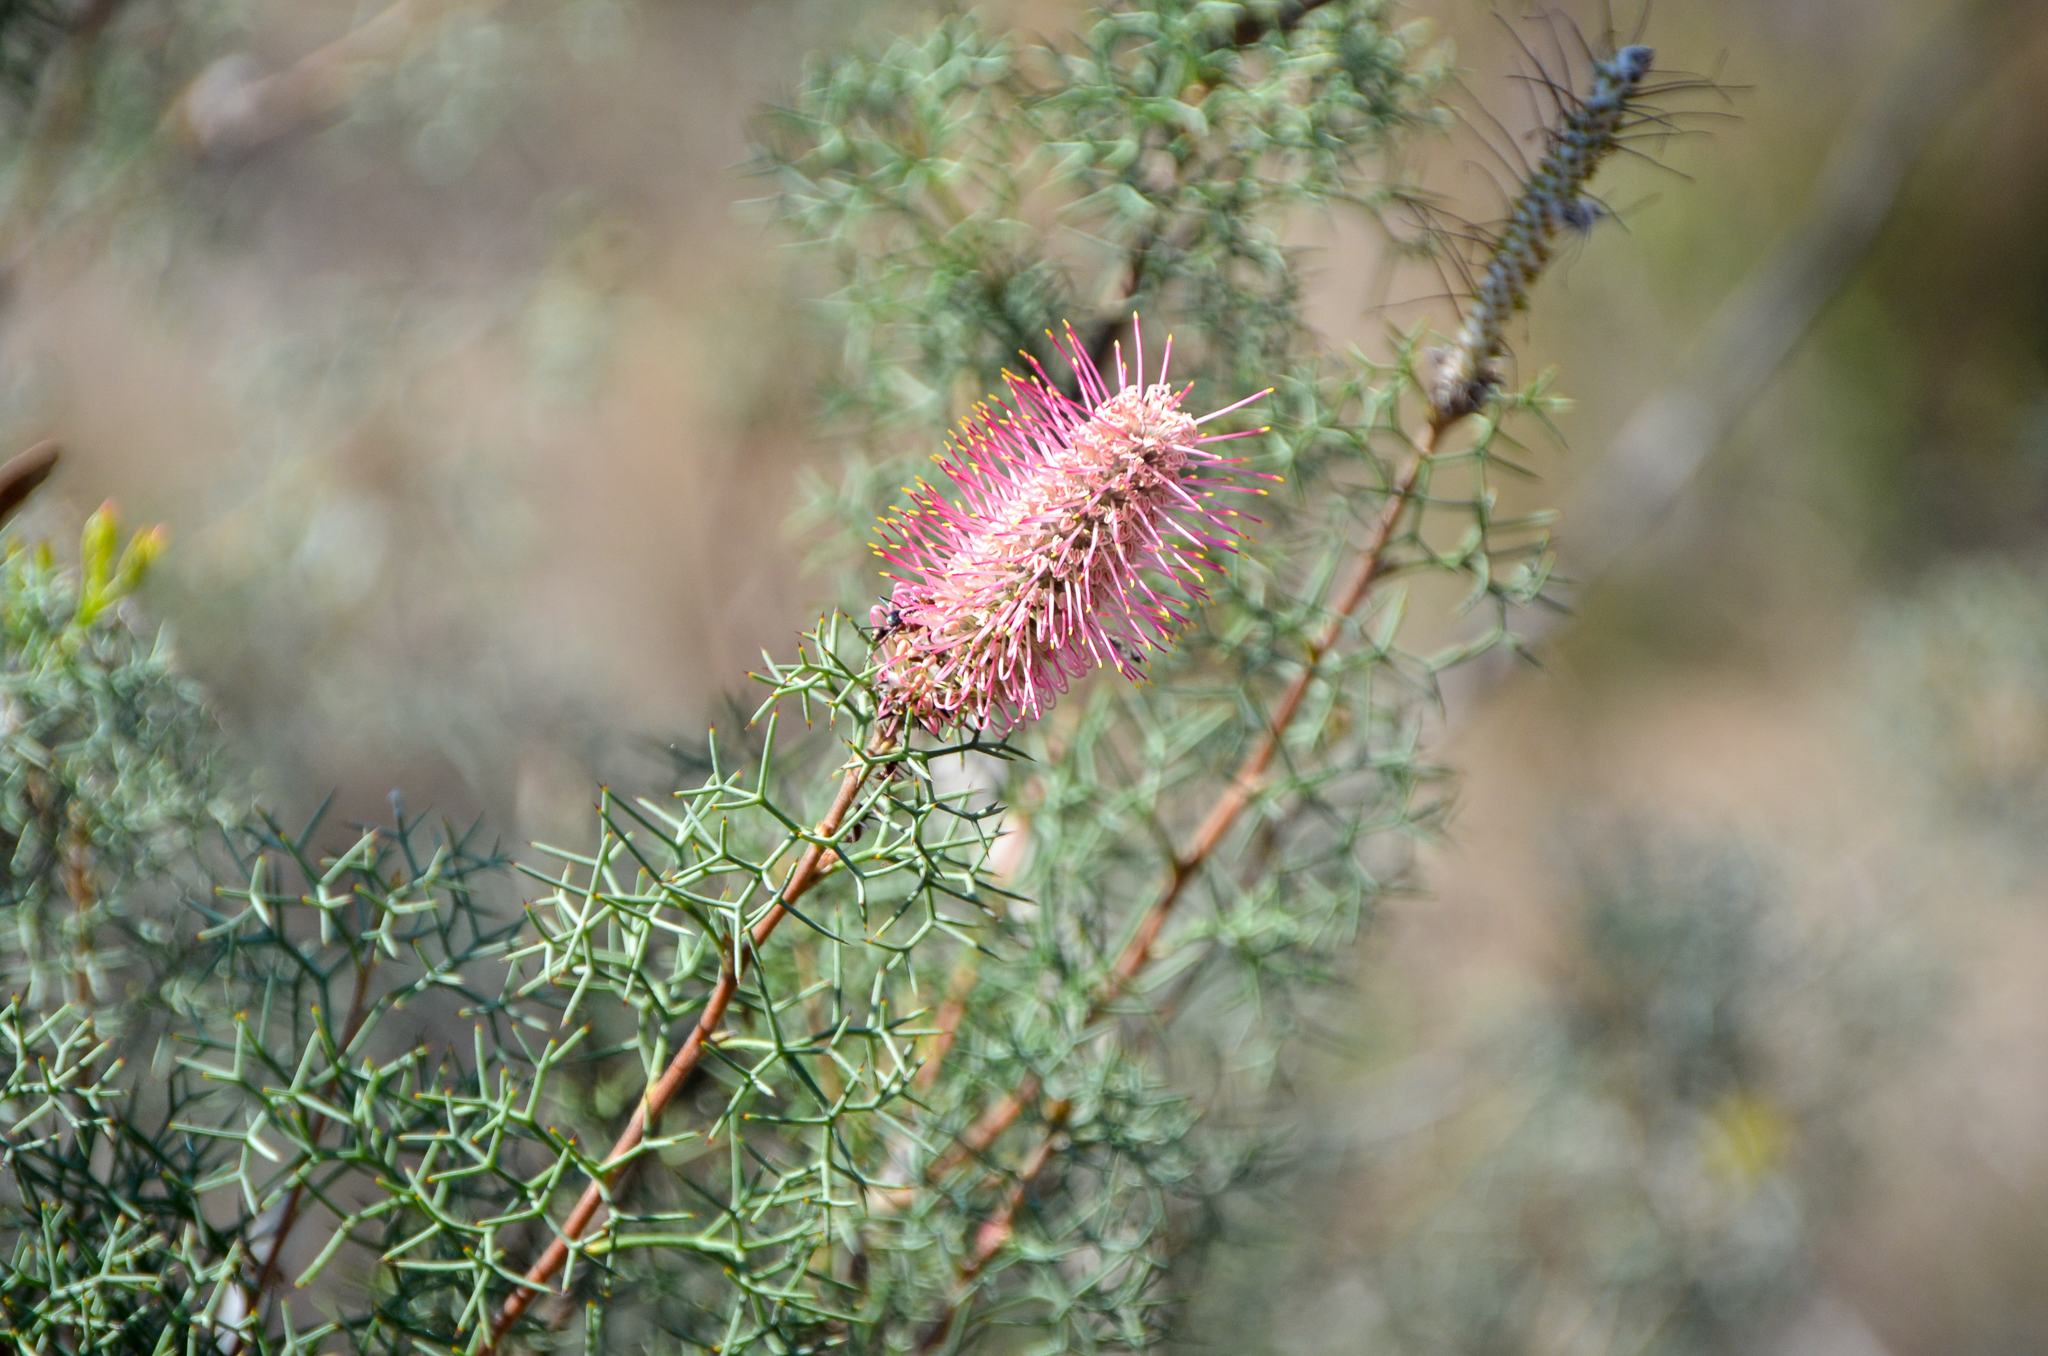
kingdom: Plantae
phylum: Tracheophyta
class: Magnoliopsida
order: Proteales
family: Proteaceae
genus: Grevillea
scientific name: Grevillea paradoxa
